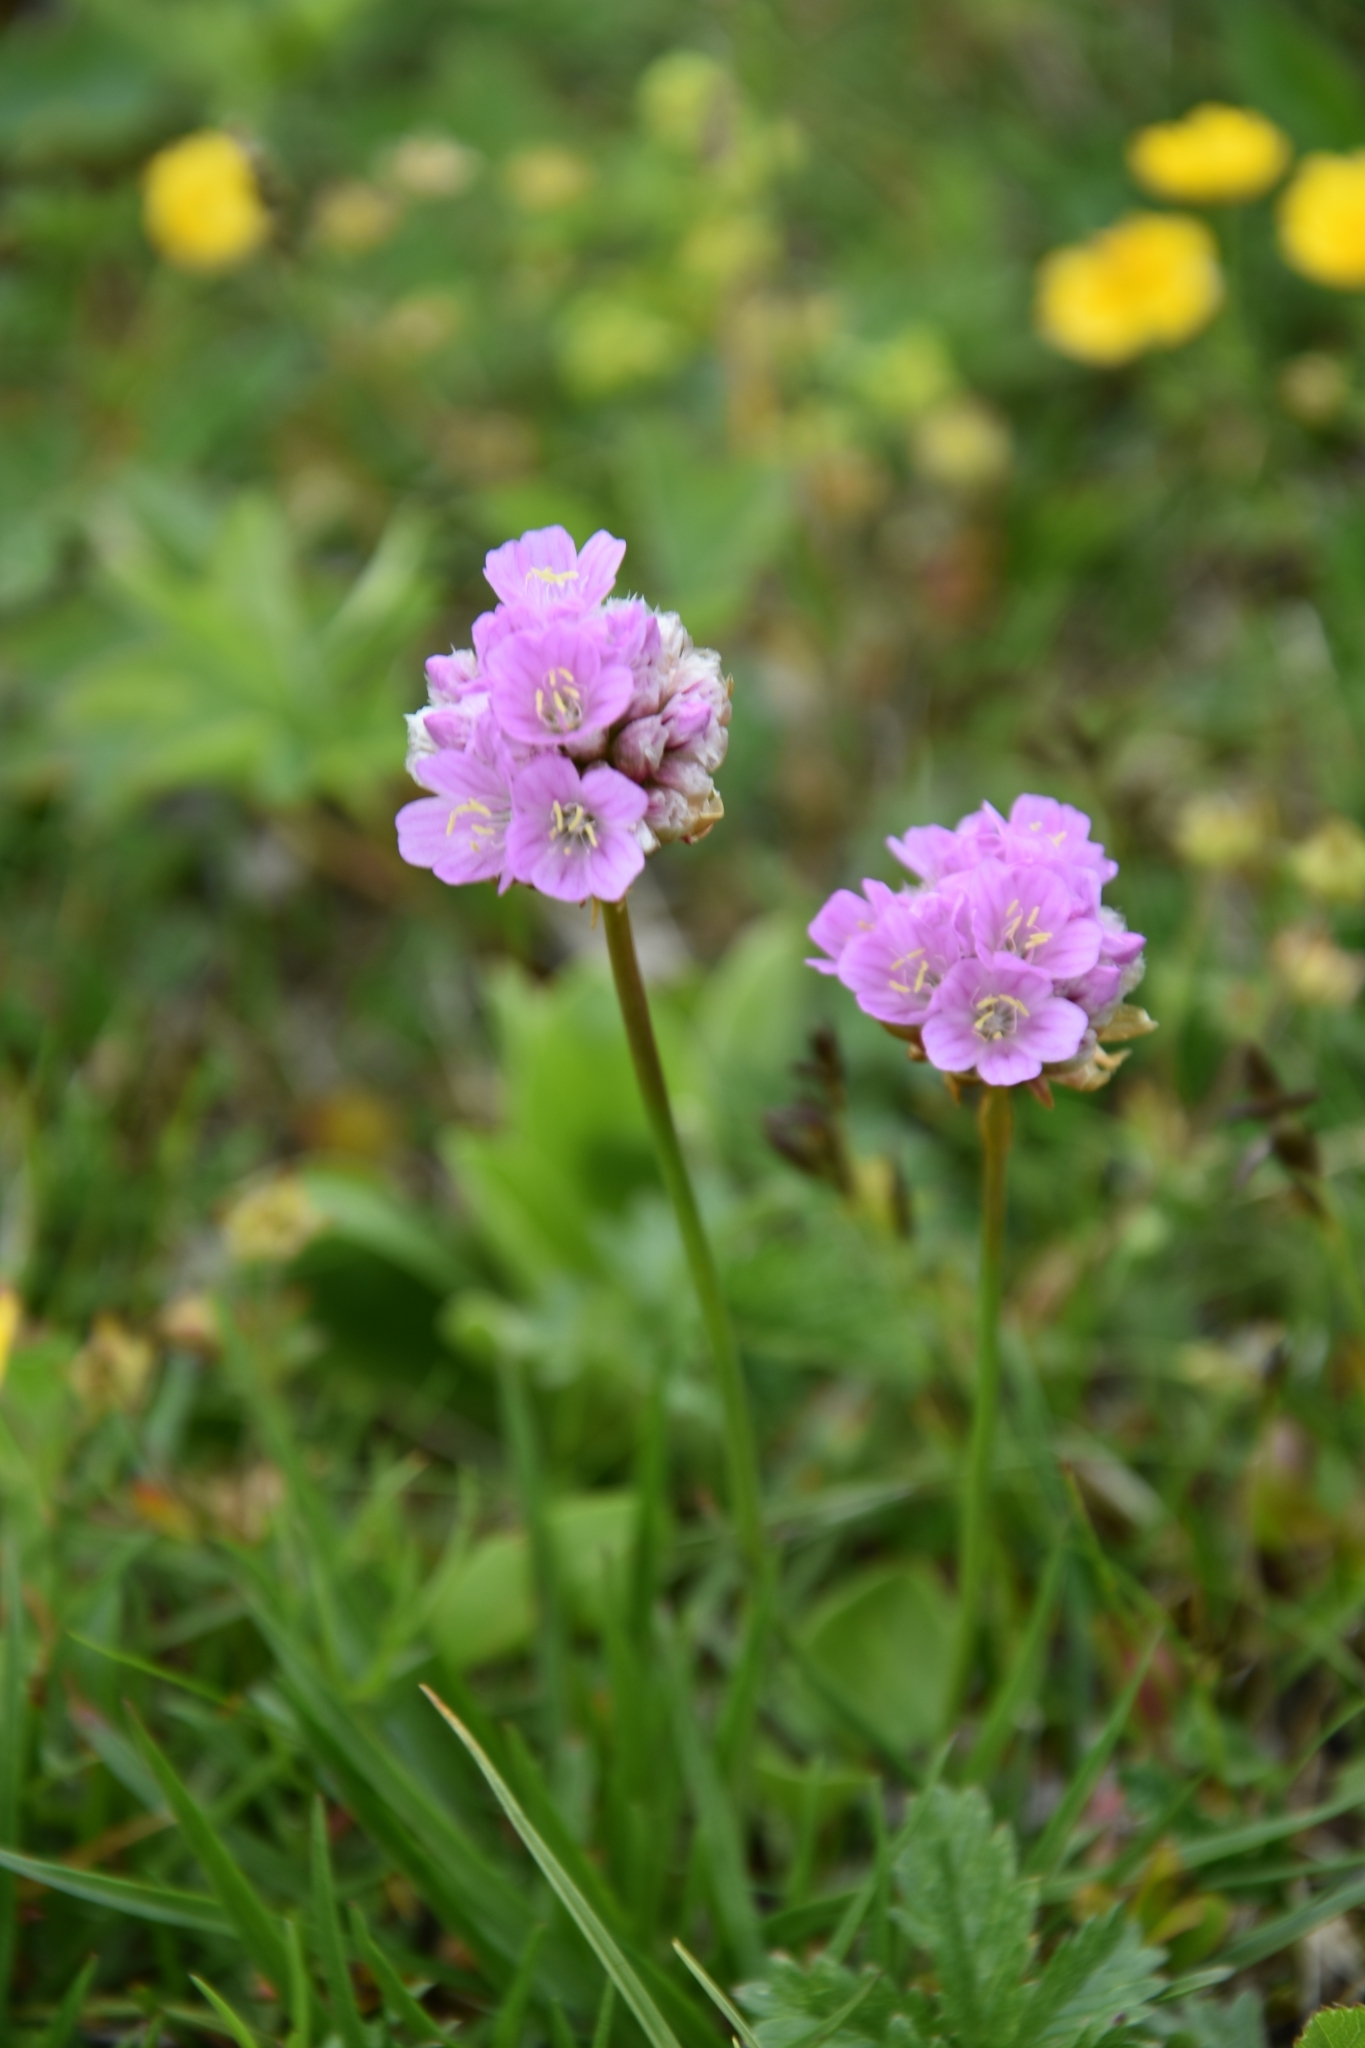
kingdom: Plantae
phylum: Tracheophyta
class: Magnoliopsida
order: Caryophyllales
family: Plumbaginaceae
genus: Armeria
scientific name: Armeria alpina
